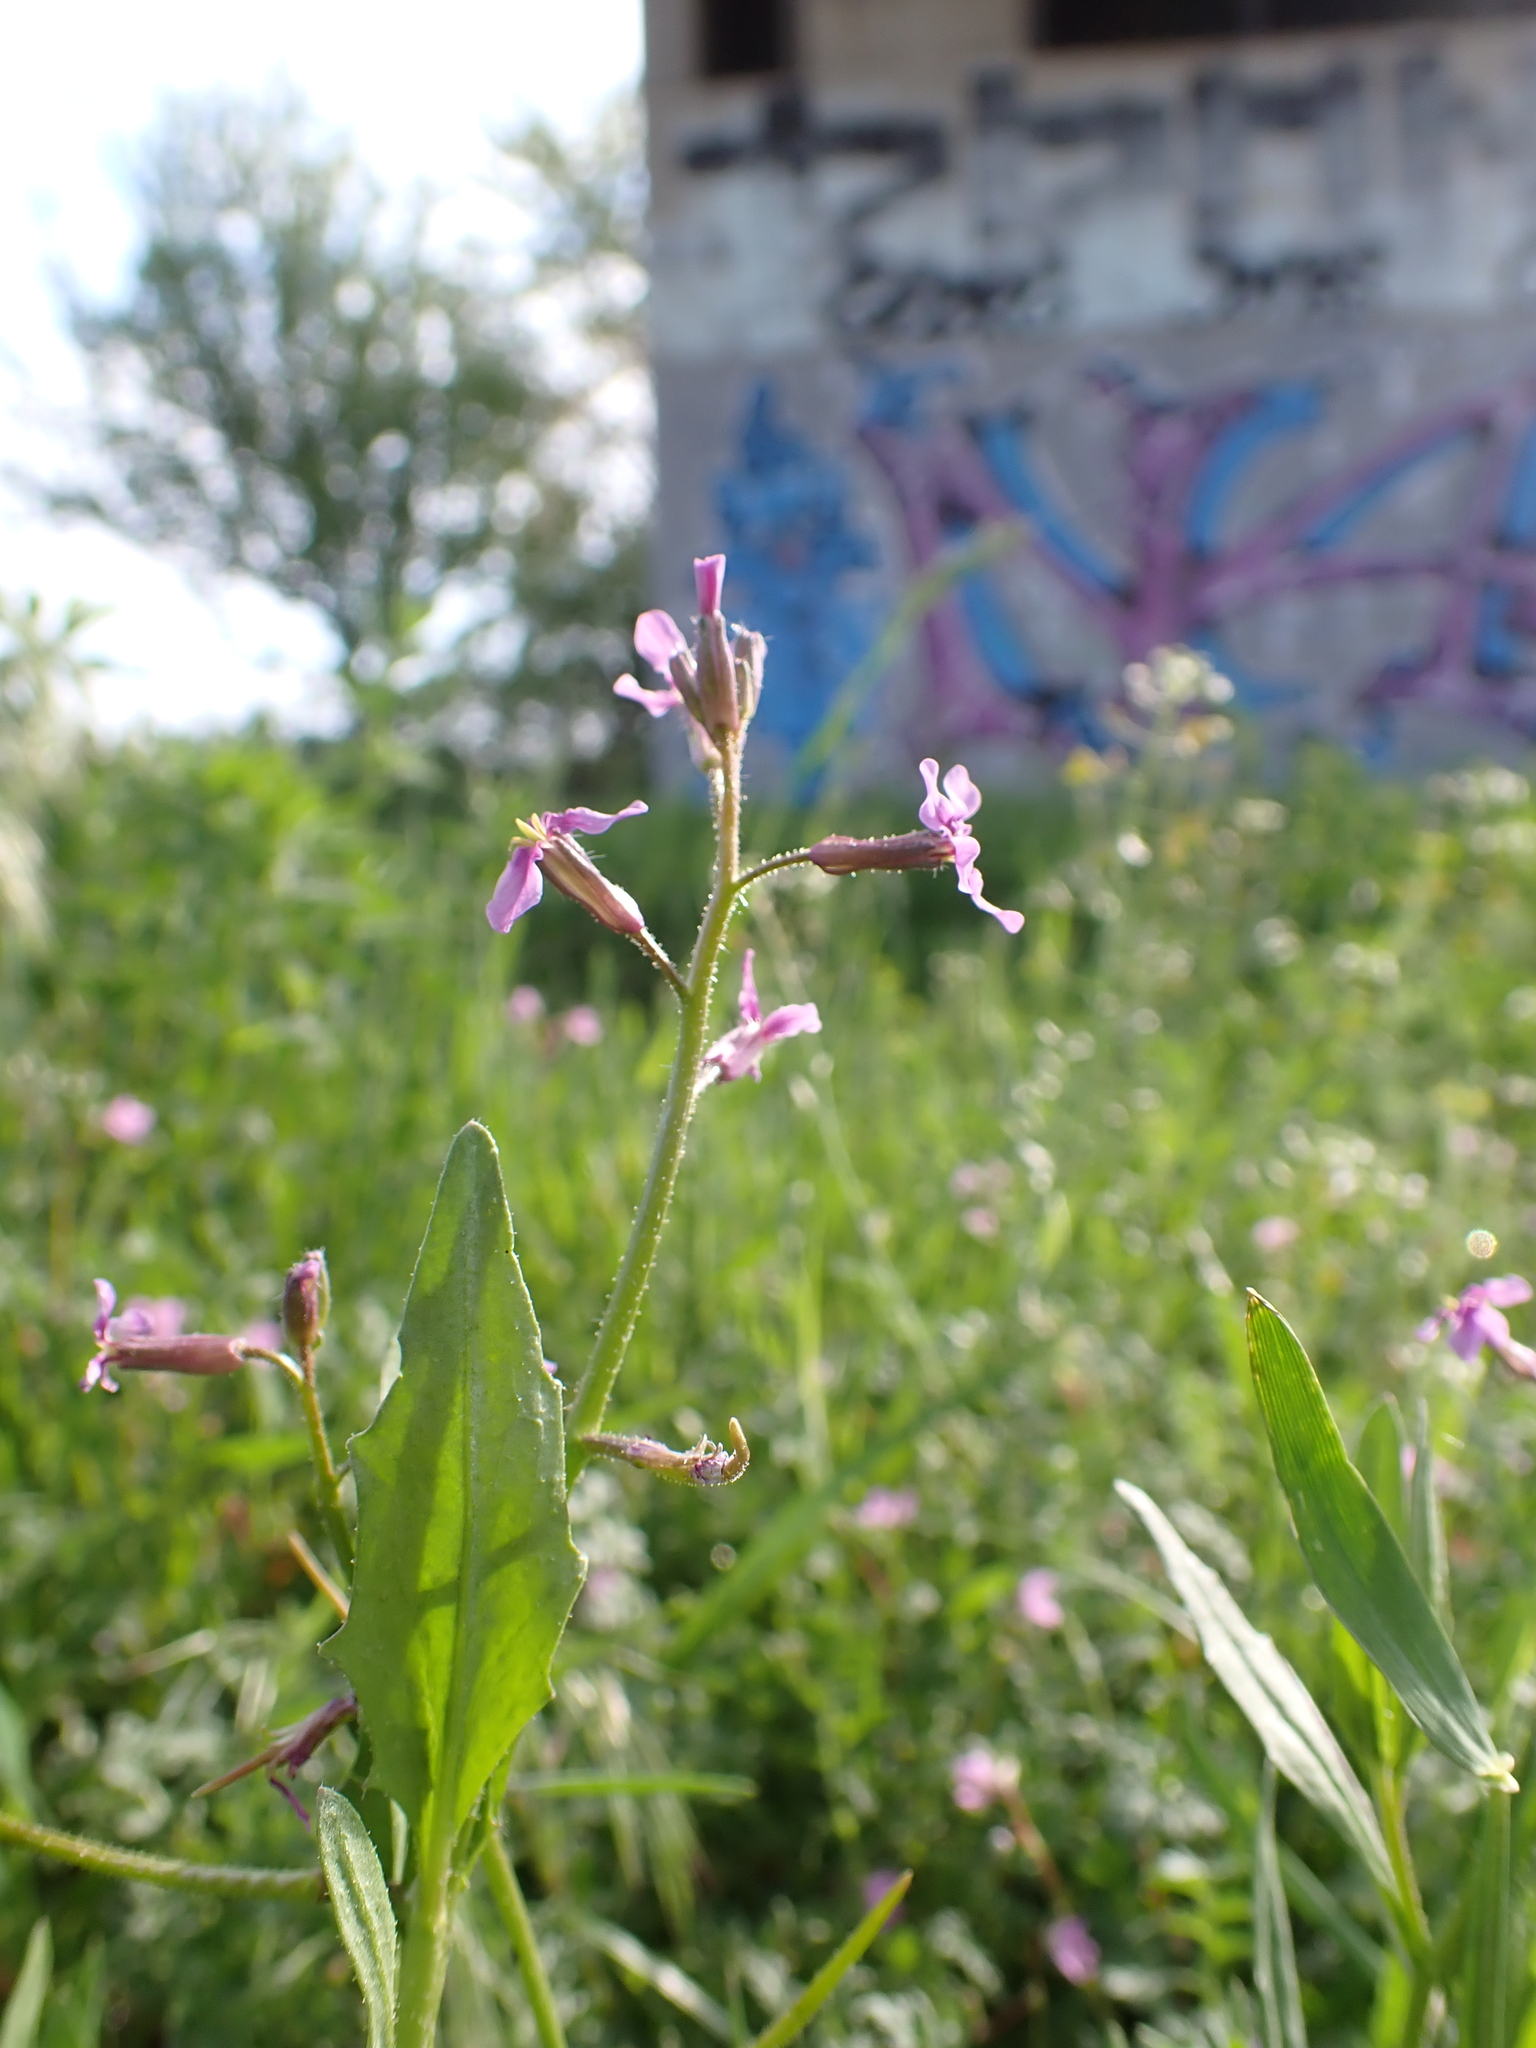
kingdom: Plantae
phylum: Tracheophyta
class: Magnoliopsida
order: Brassicales
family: Brassicaceae
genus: Chorispora
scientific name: Chorispora tenella
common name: Crossflower
